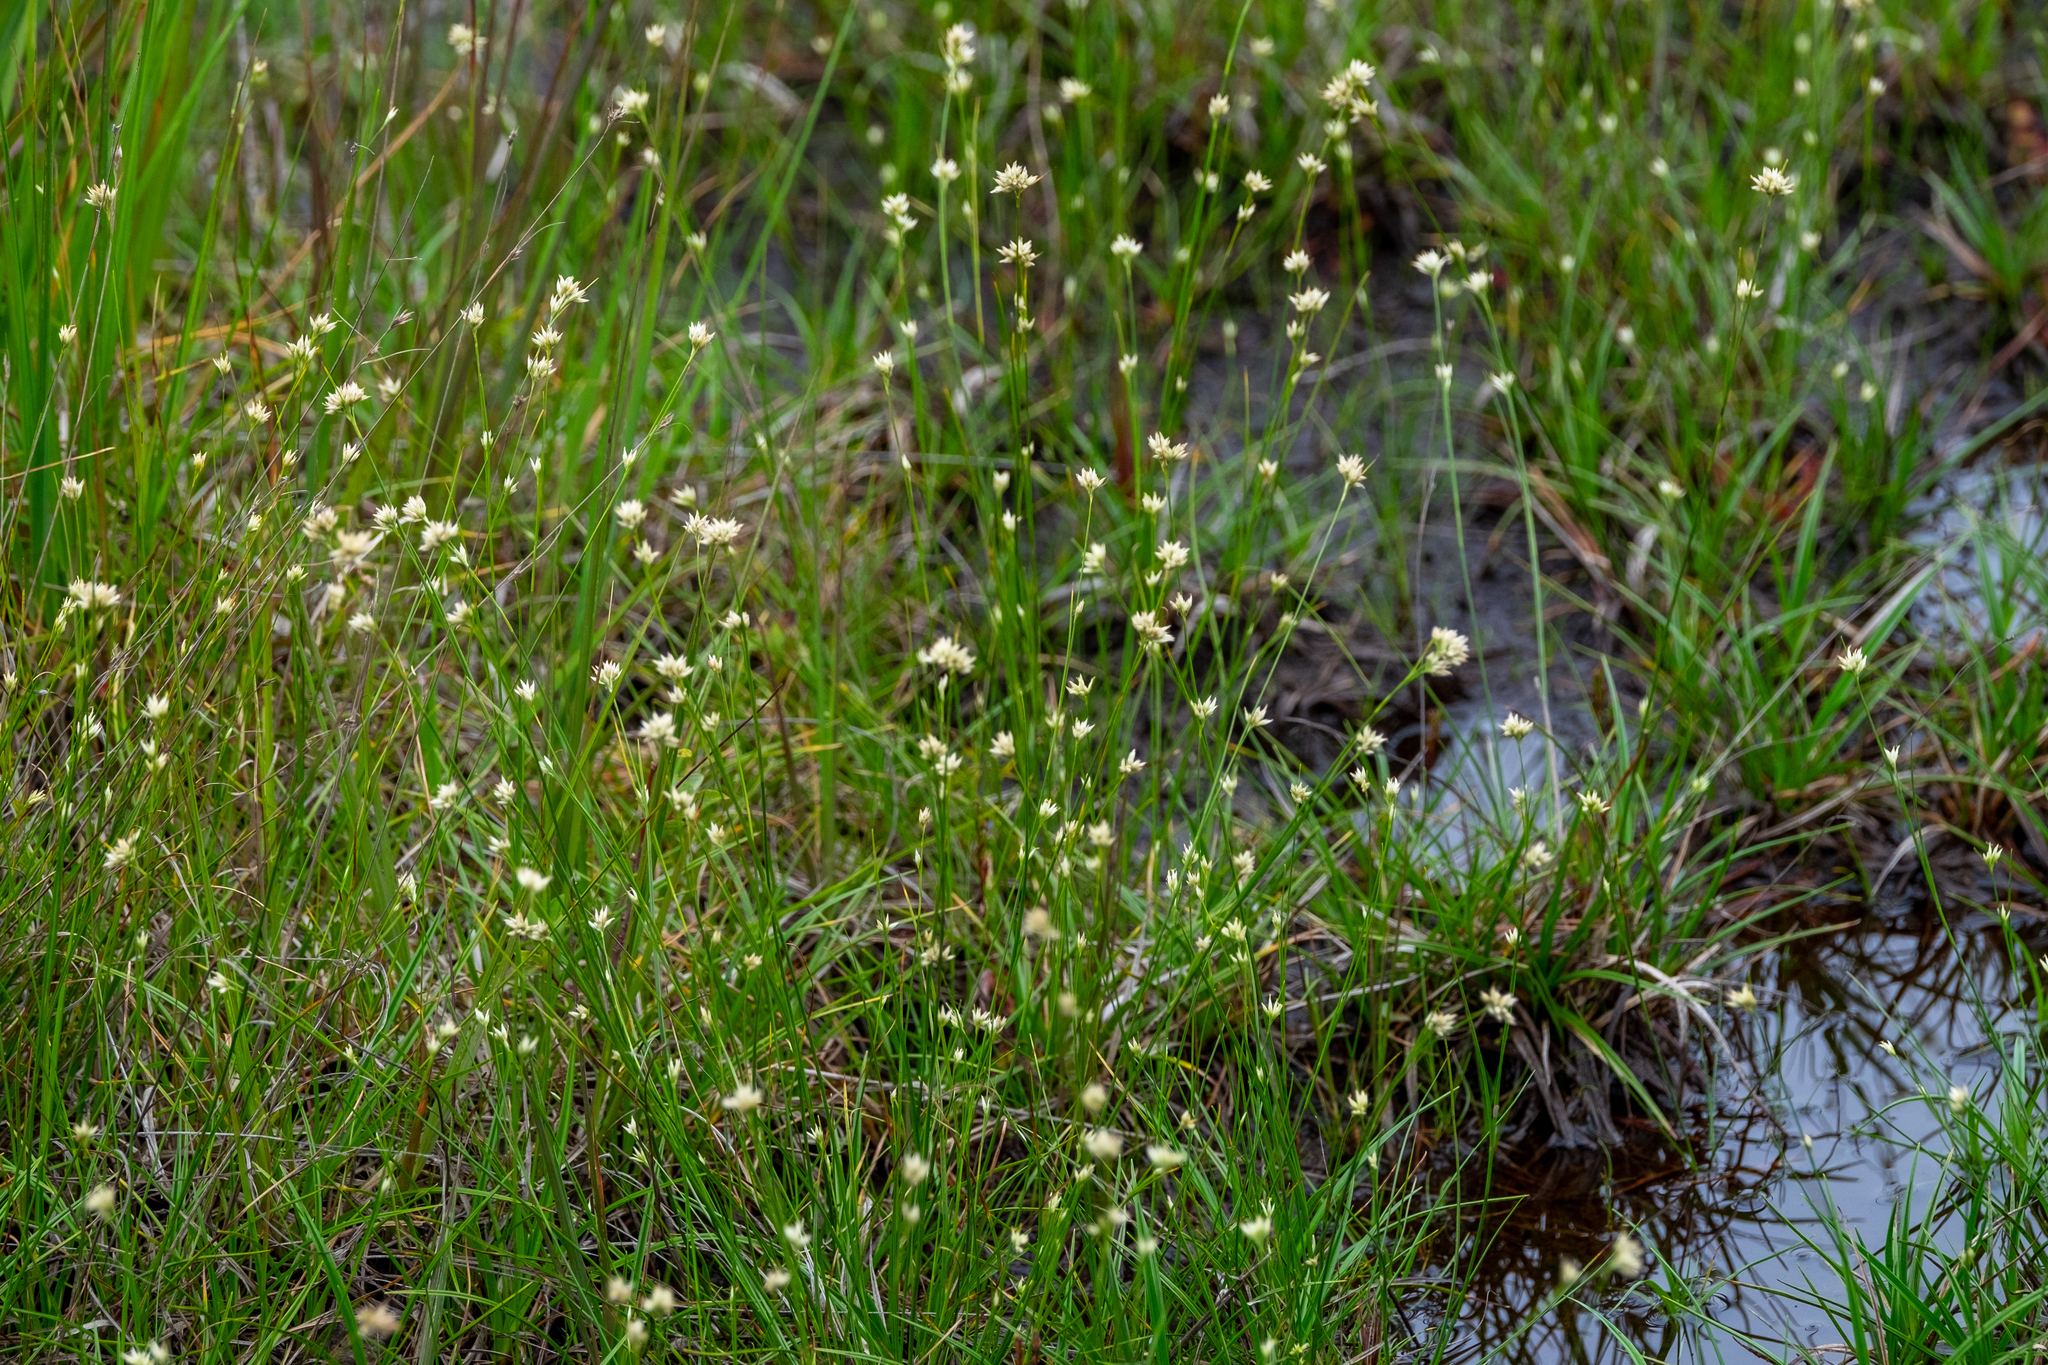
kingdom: Plantae
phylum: Tracheophyta
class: Liliopsida
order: Poales
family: Cyperaceae
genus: Rhynchospora
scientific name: Rhynchospora alba
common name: White beak-sedge
